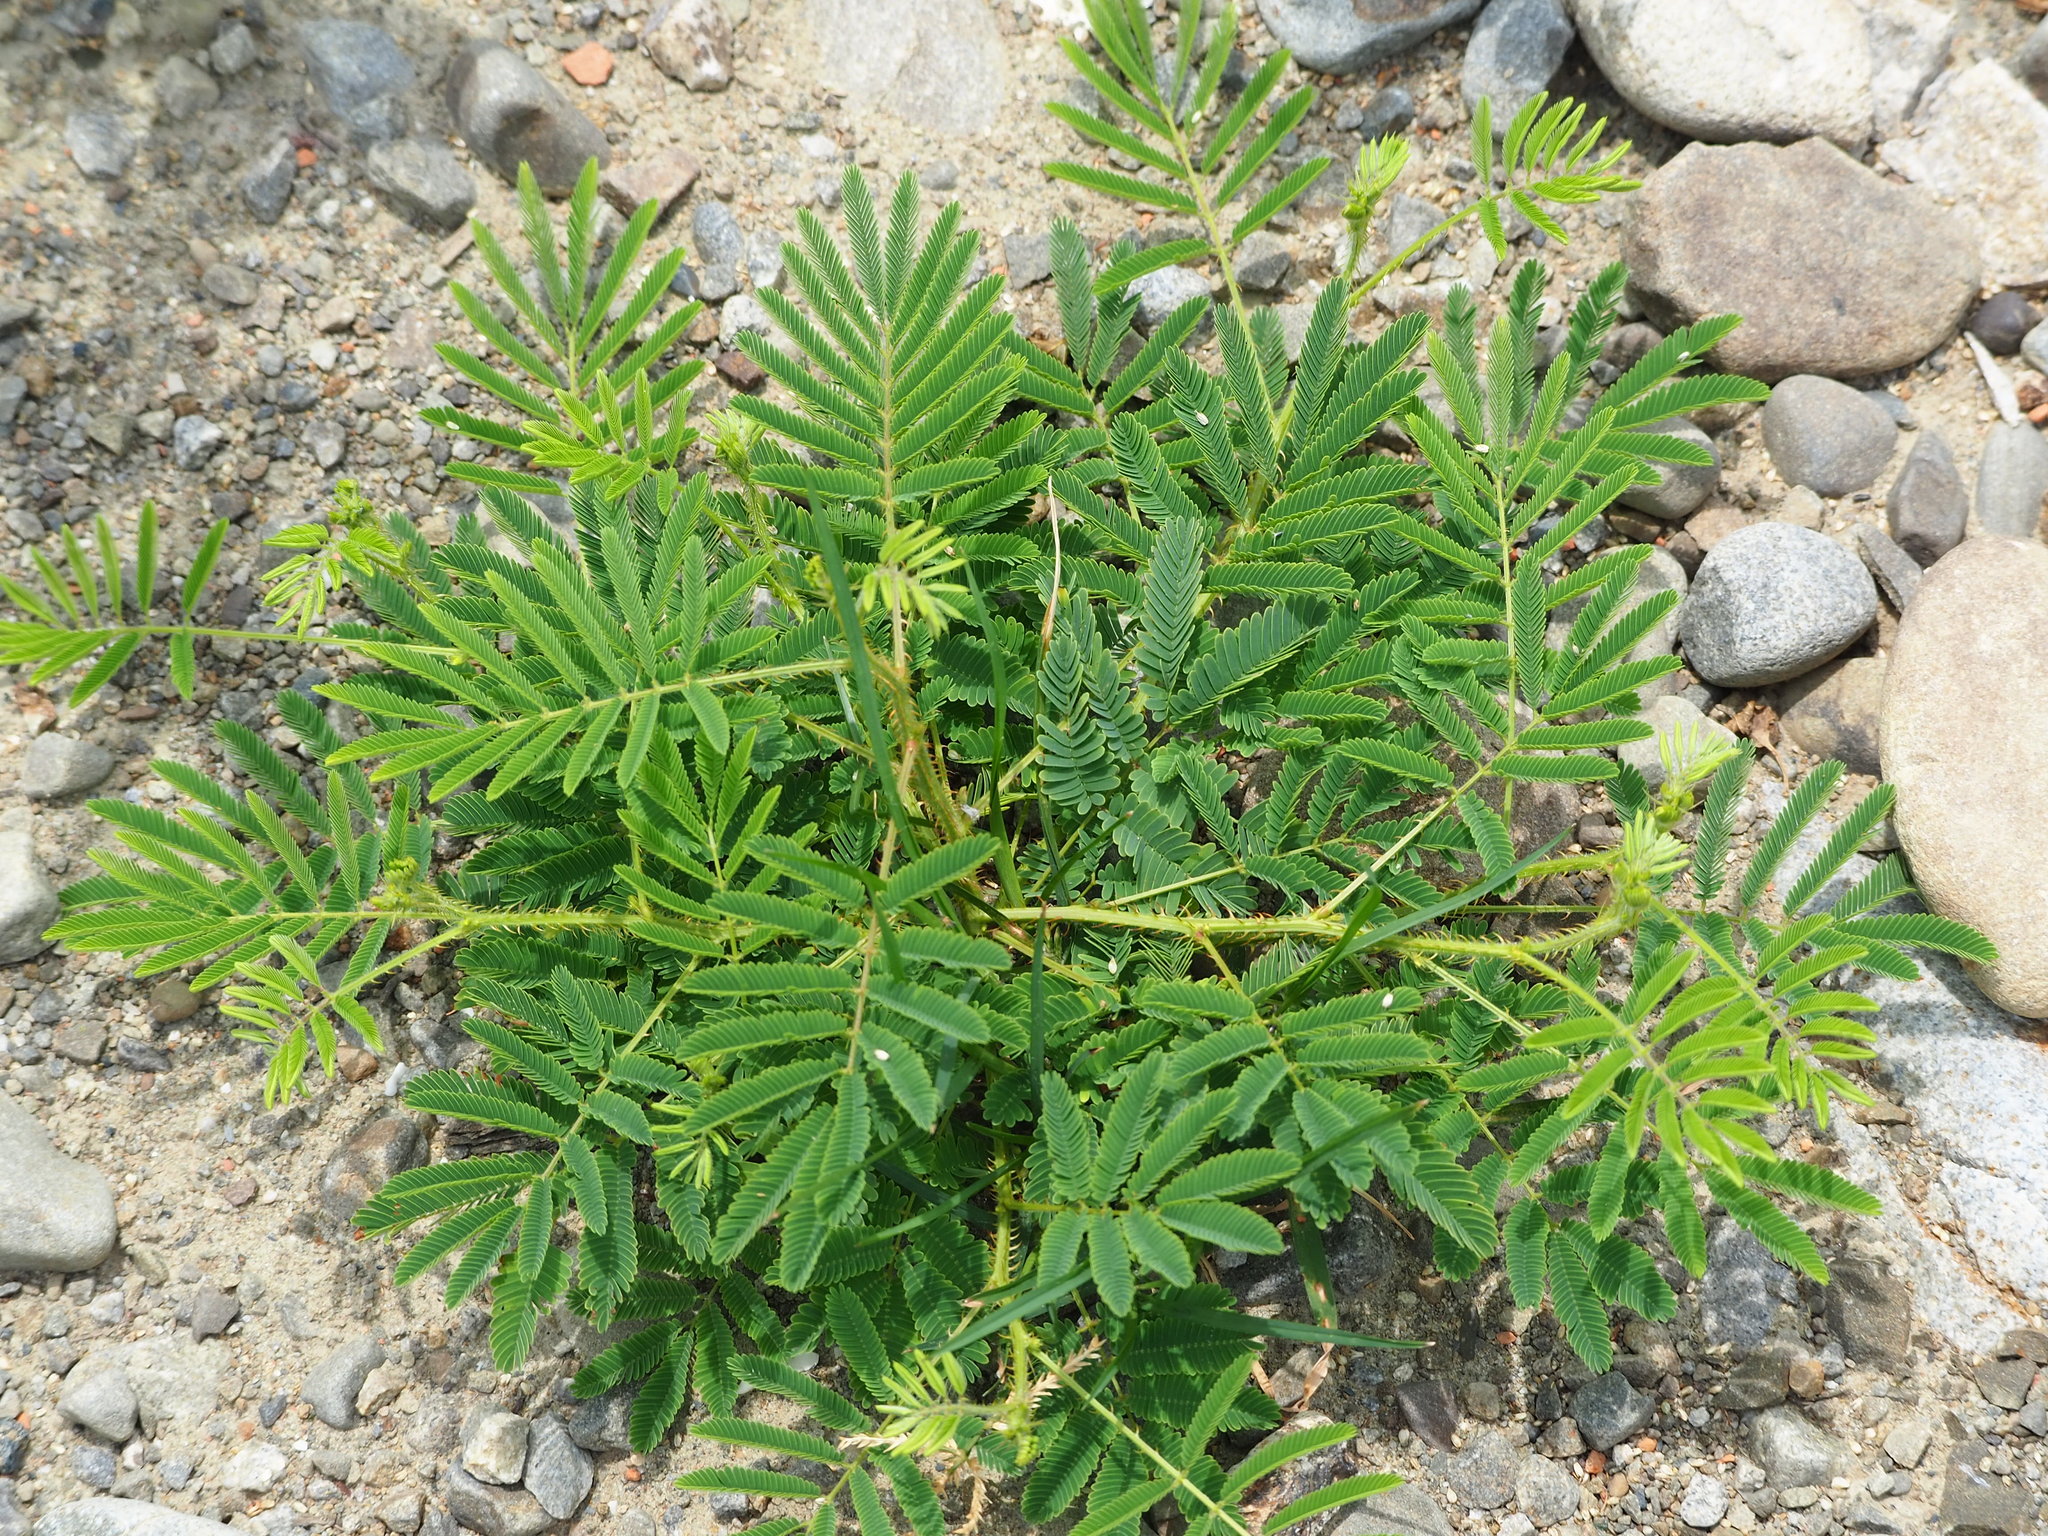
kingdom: Plantae
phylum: Tracheophyta
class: Magnoliopsida
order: Fabales
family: Fabaceae
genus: Mimosa
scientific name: Mimosa diplotricha
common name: Giant sensitive-plant
